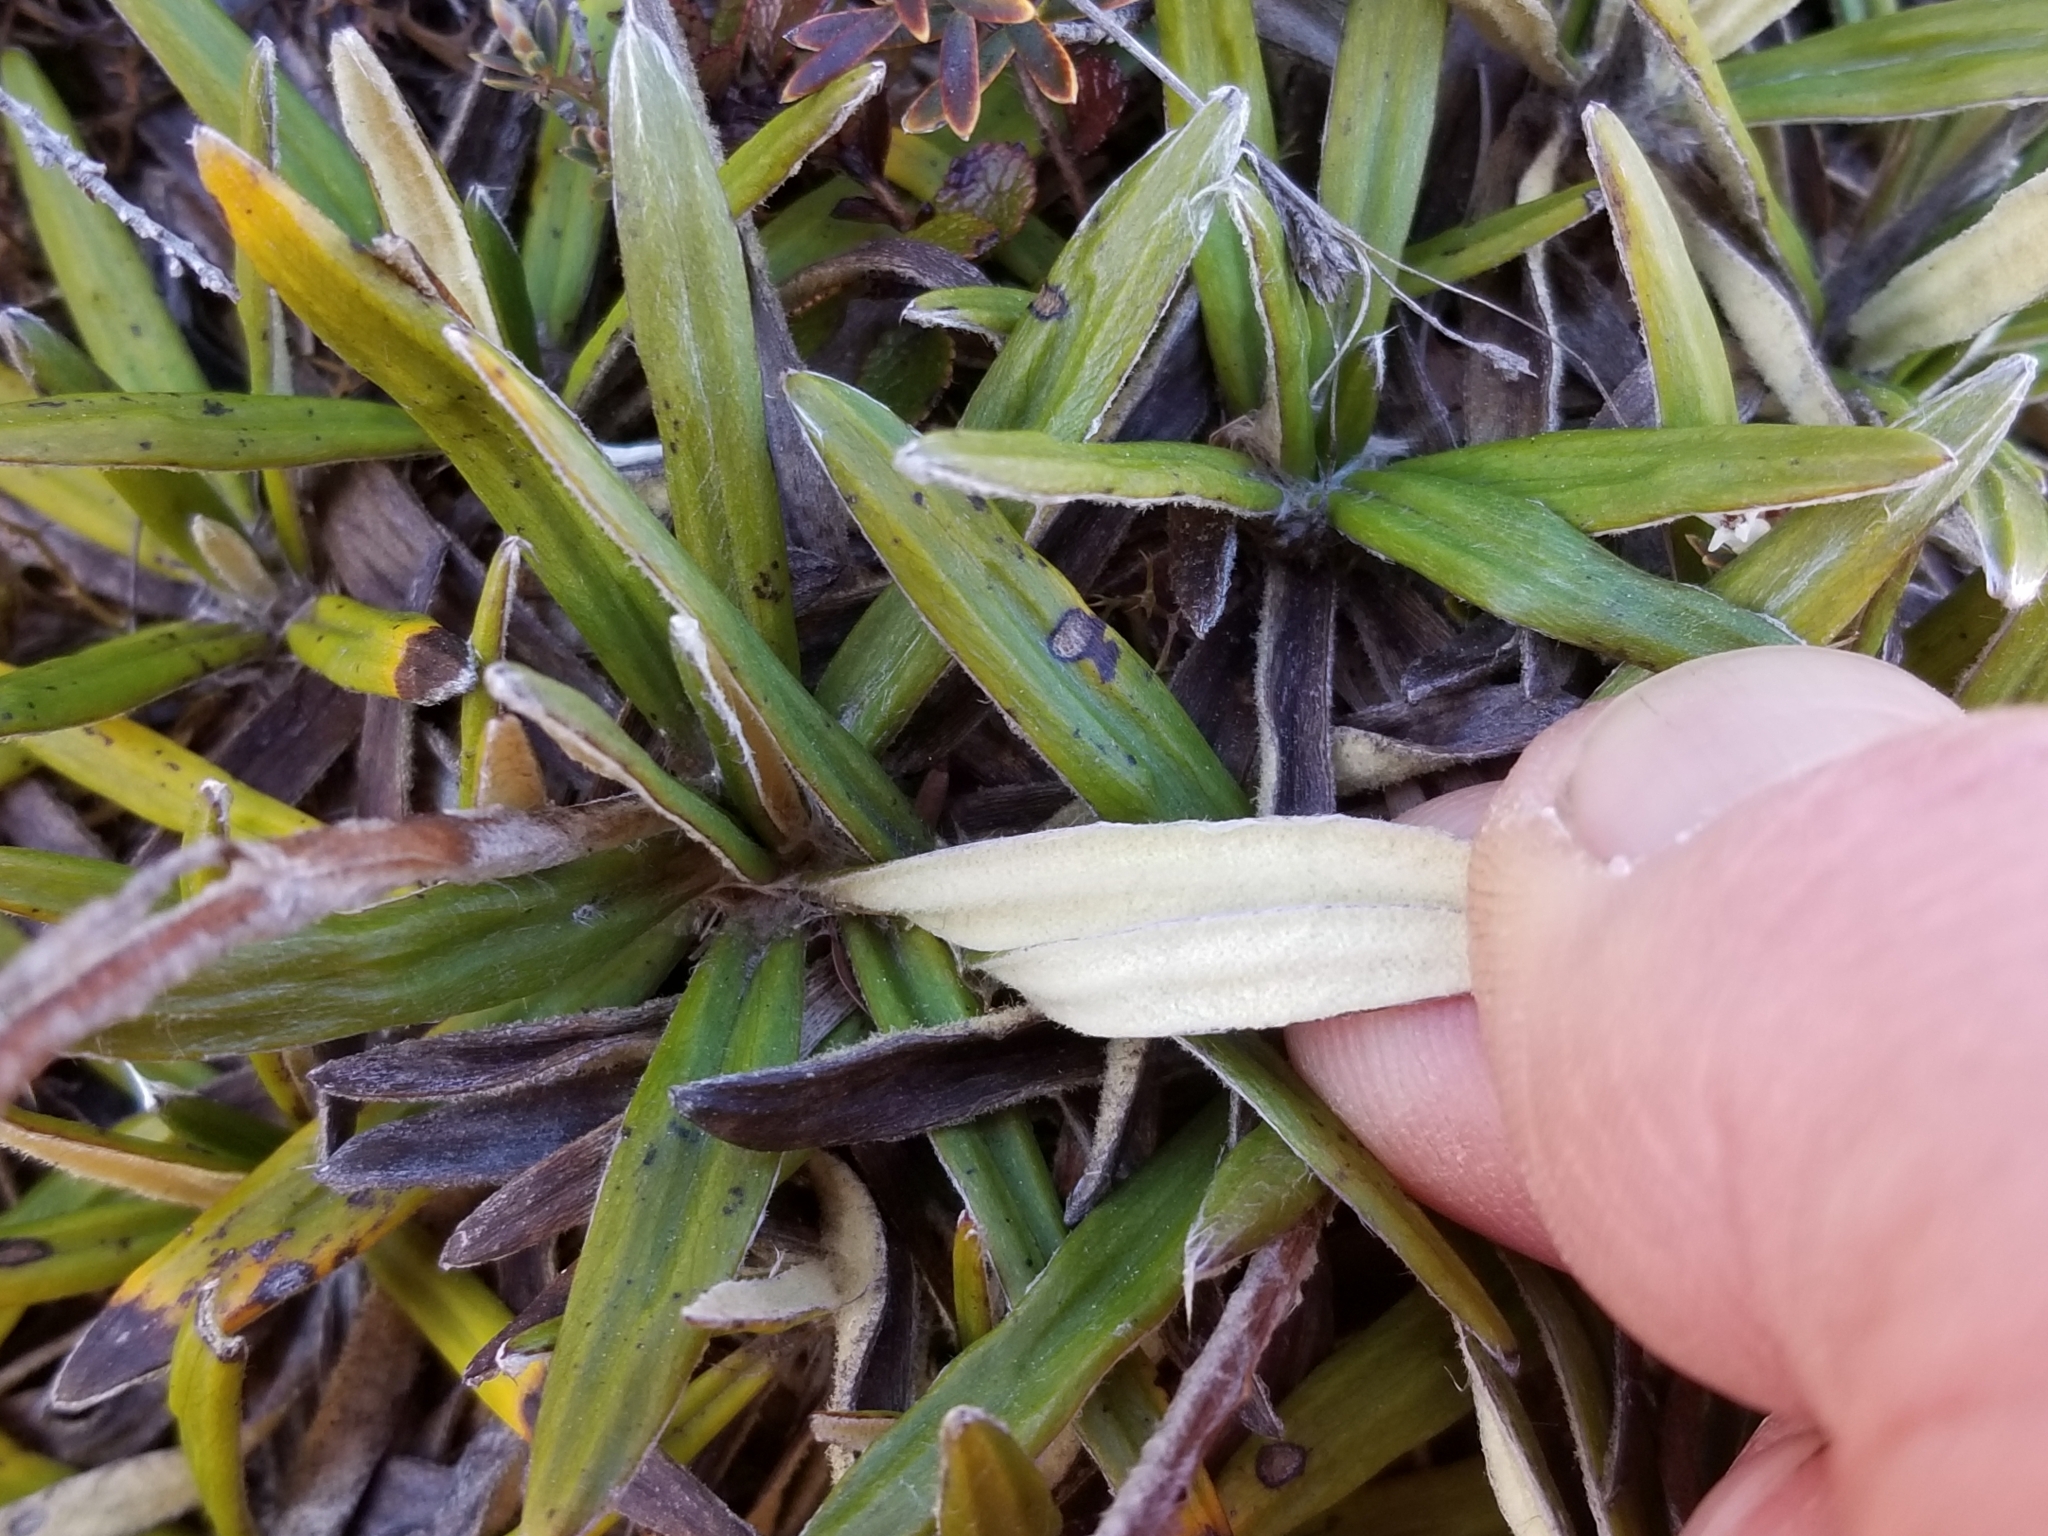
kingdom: Plantae
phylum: Tracheophyta
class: Magnoliopsida
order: Asterales
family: Asteraceae
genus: Celmisia
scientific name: Celmisia spectabilis
